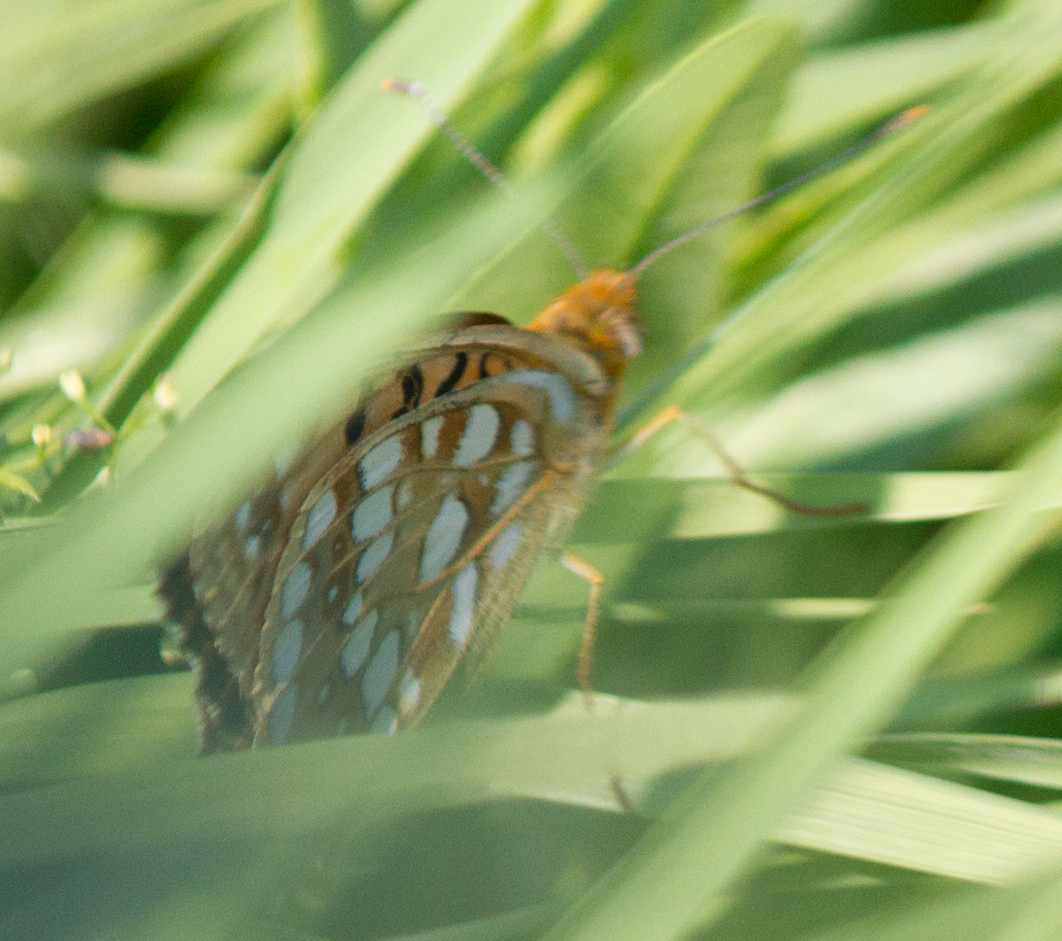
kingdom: Animalia
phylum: Arthropoda
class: Insecta
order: Lepidoptera
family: Nymphalidae
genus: Fabriciana
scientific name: Fabriciana adippe
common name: High brown fritillary
